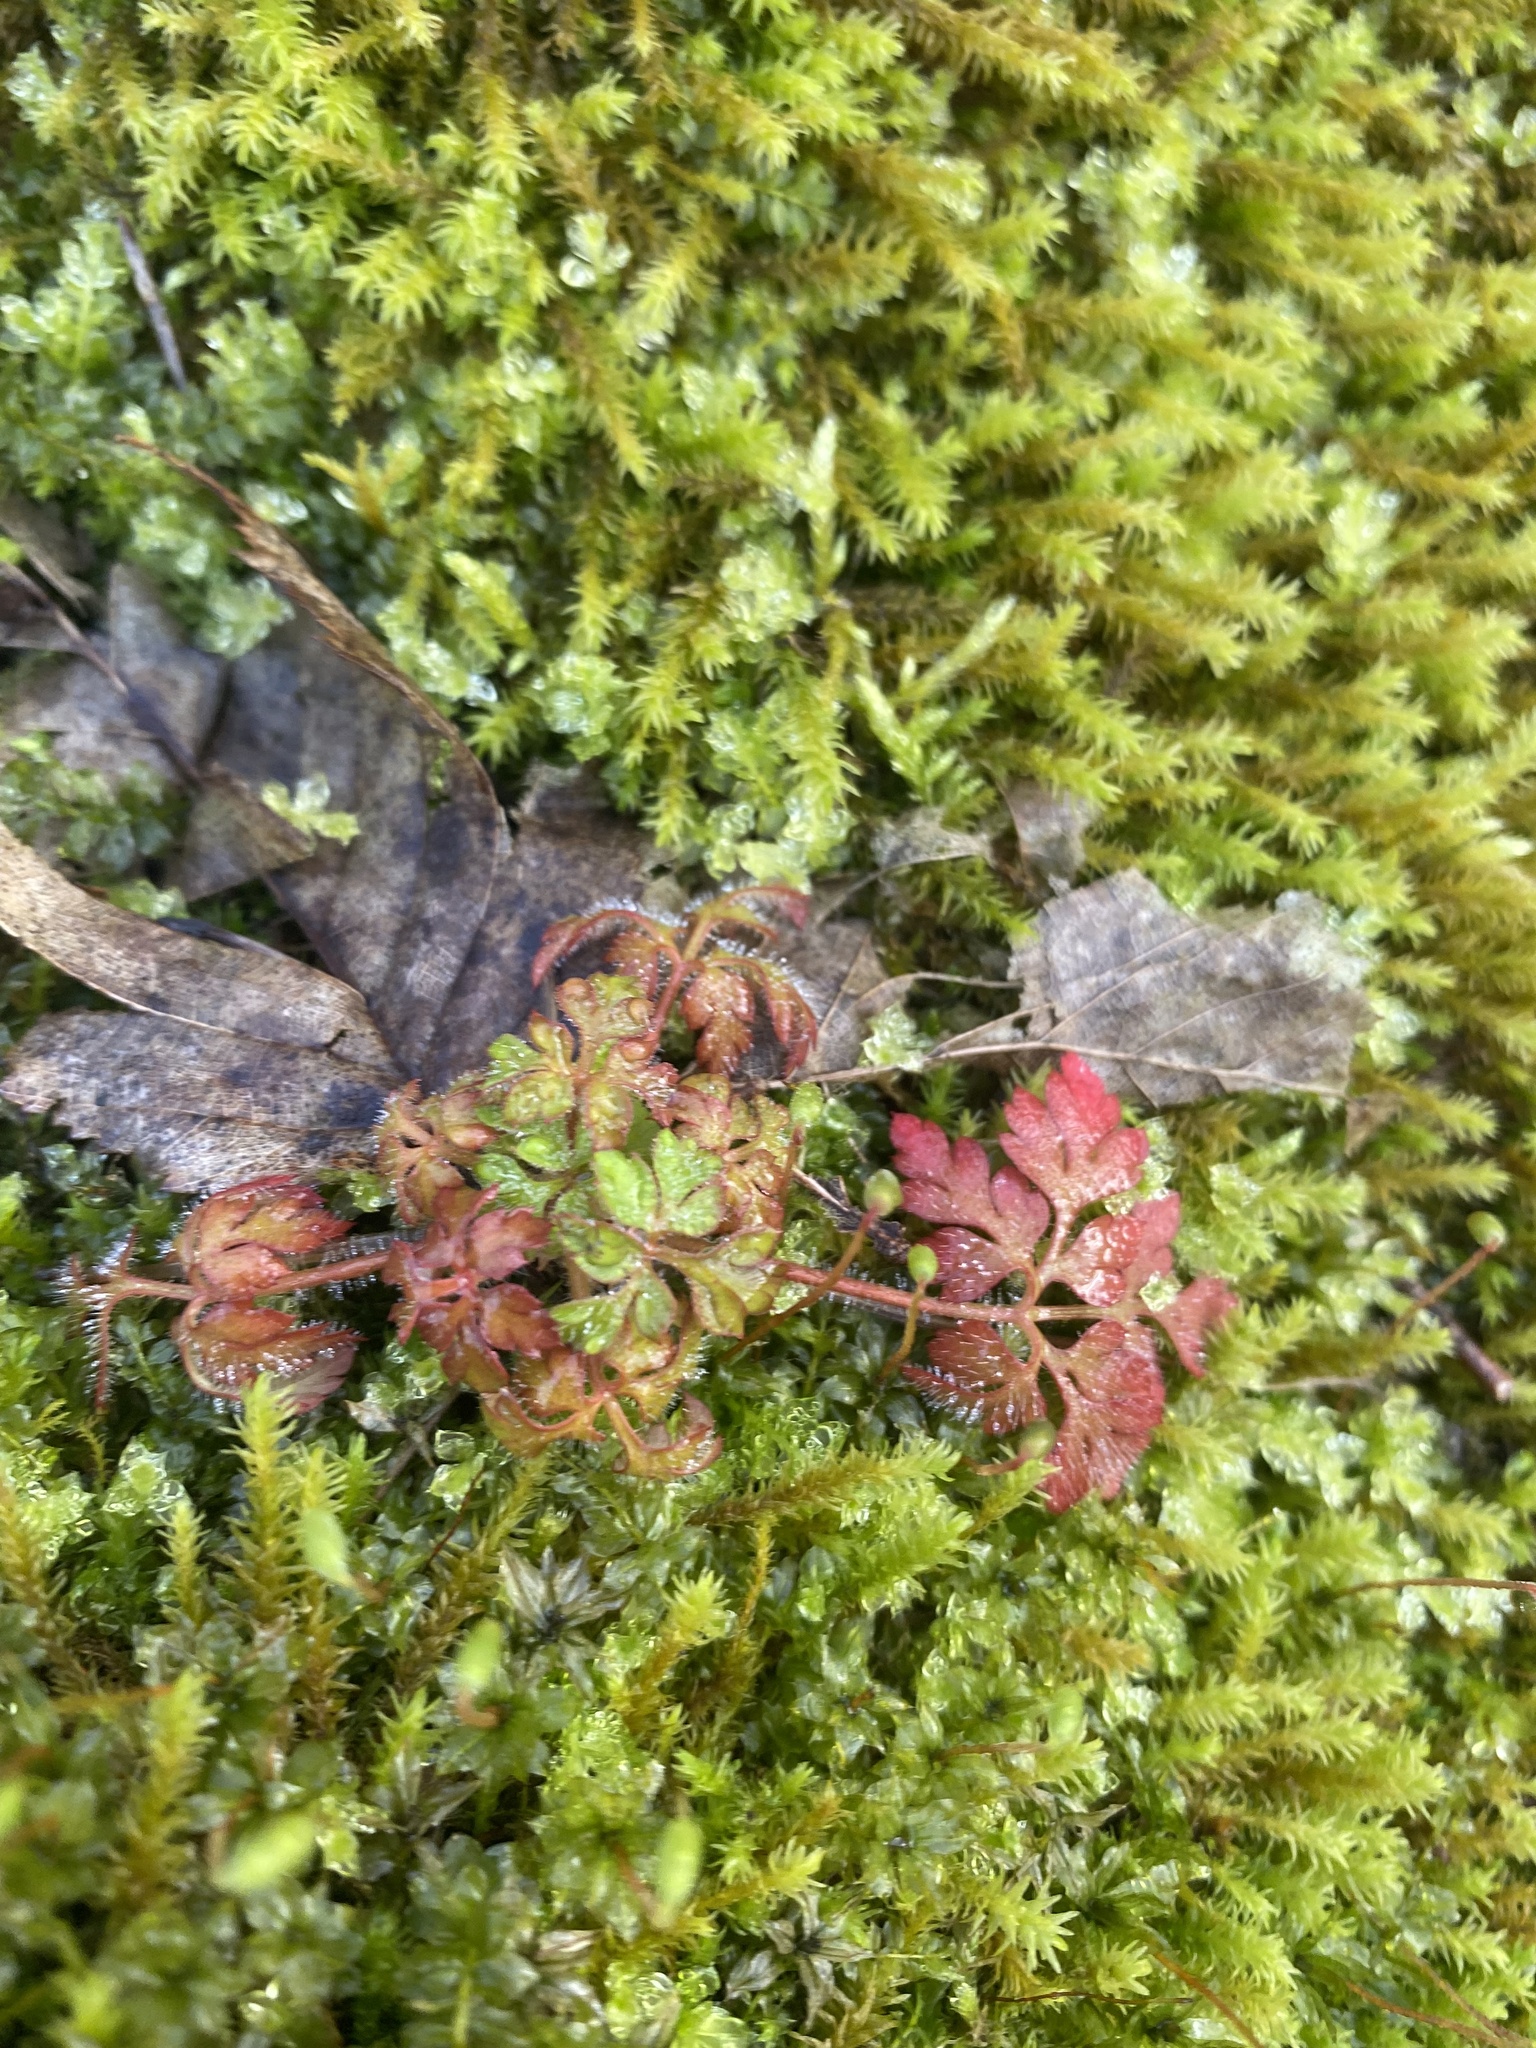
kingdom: Plantae
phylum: Tracheophyta
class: Magnoliopsida
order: Geraniales
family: Geraniaceae
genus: Geranium
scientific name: Geranium robertianum
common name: Herb-robert
